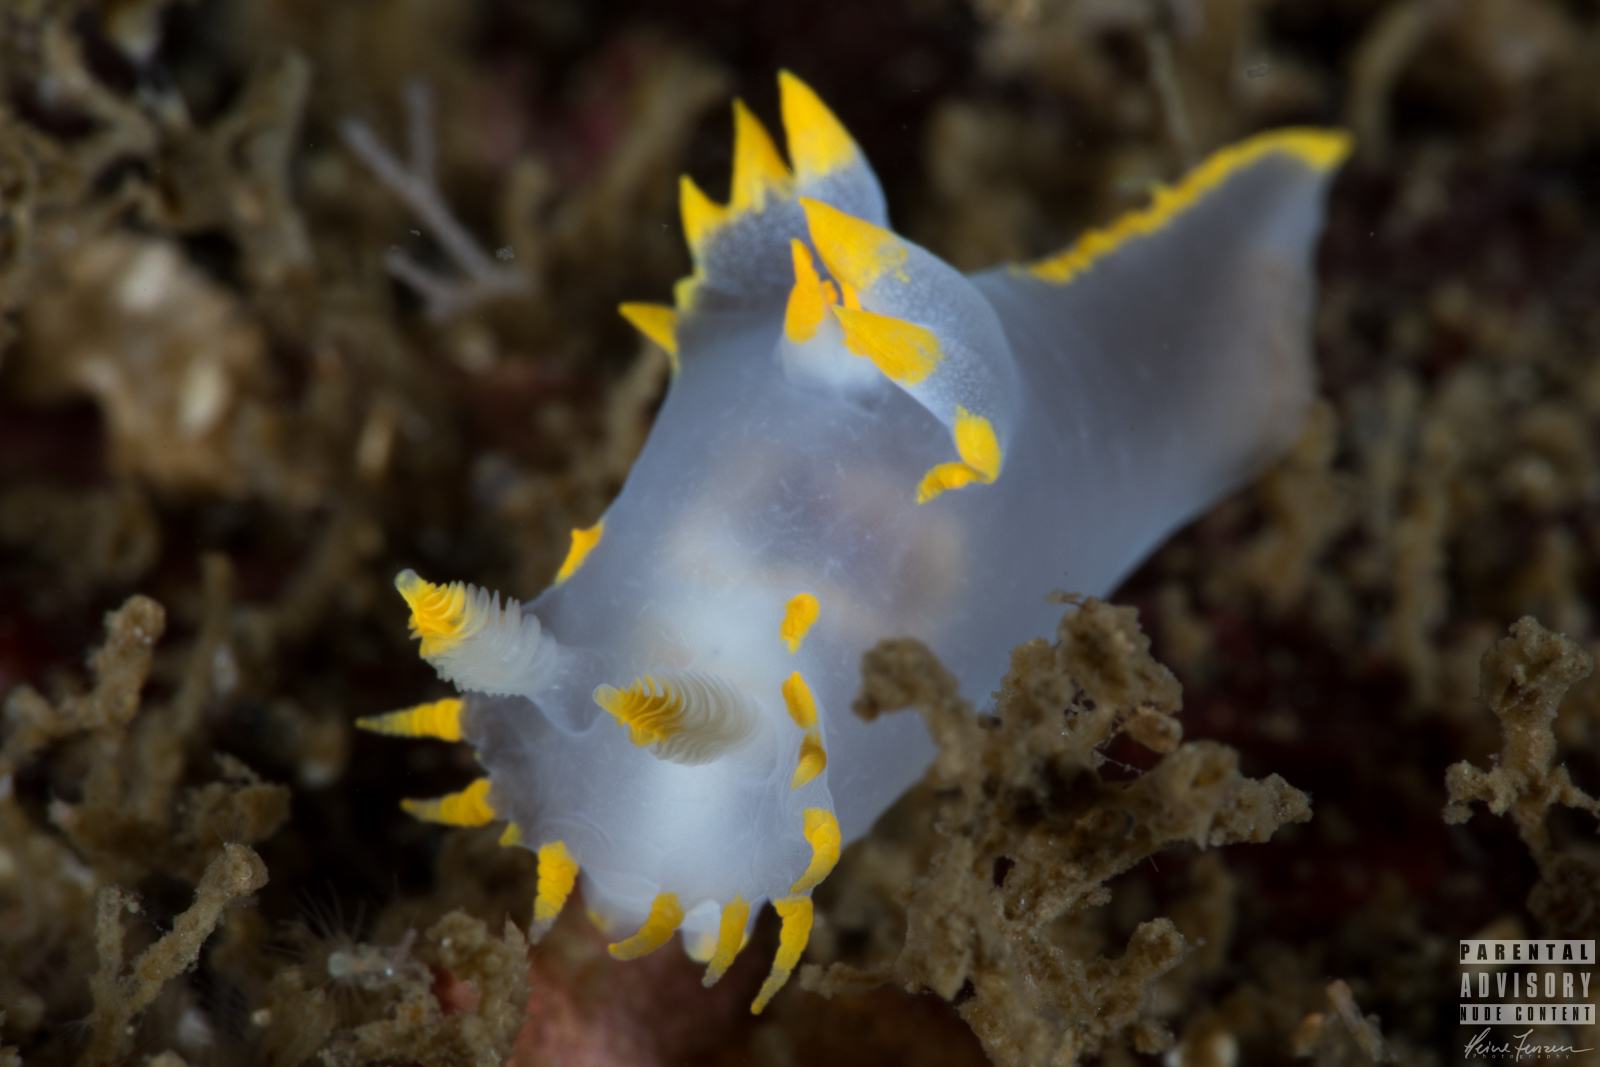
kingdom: Animalia
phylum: Mollusca
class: Gastropoda
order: Nudibranchia
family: Polyceridae
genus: Polycera
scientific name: Polycera faeroensis
